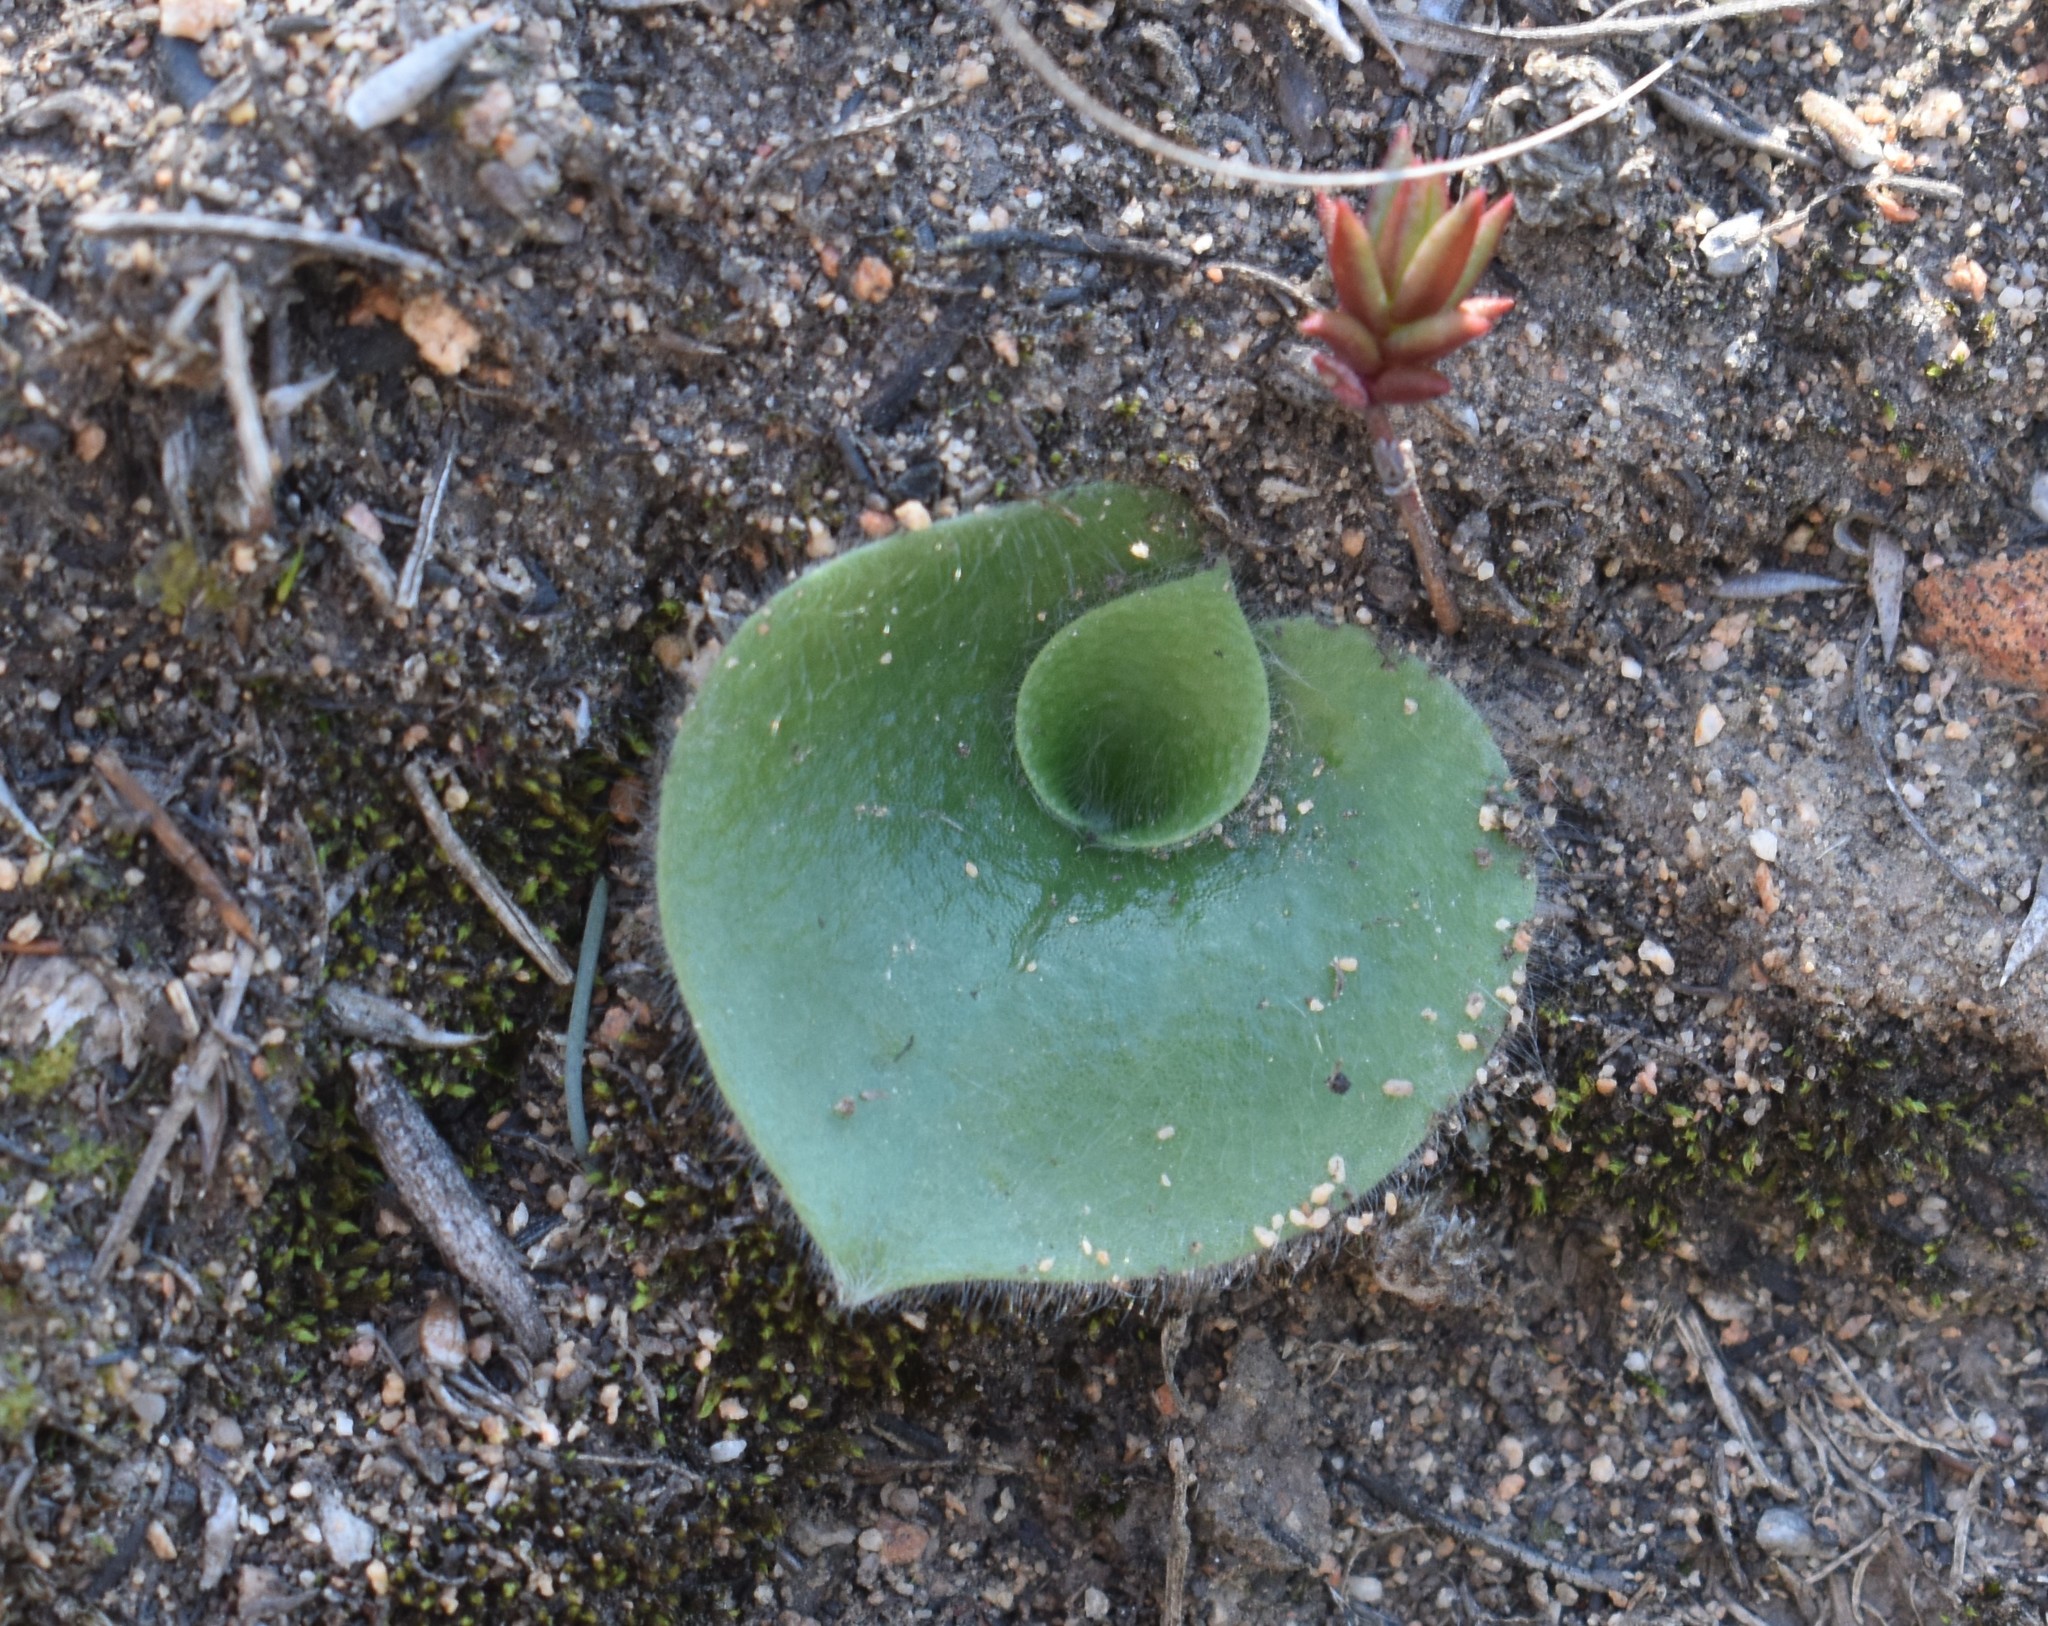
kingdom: Plantae
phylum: Tracheophyta
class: Liliopsida
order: Asparagales
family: Orchidaceae
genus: Holothrix
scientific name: Holothrix villosa
